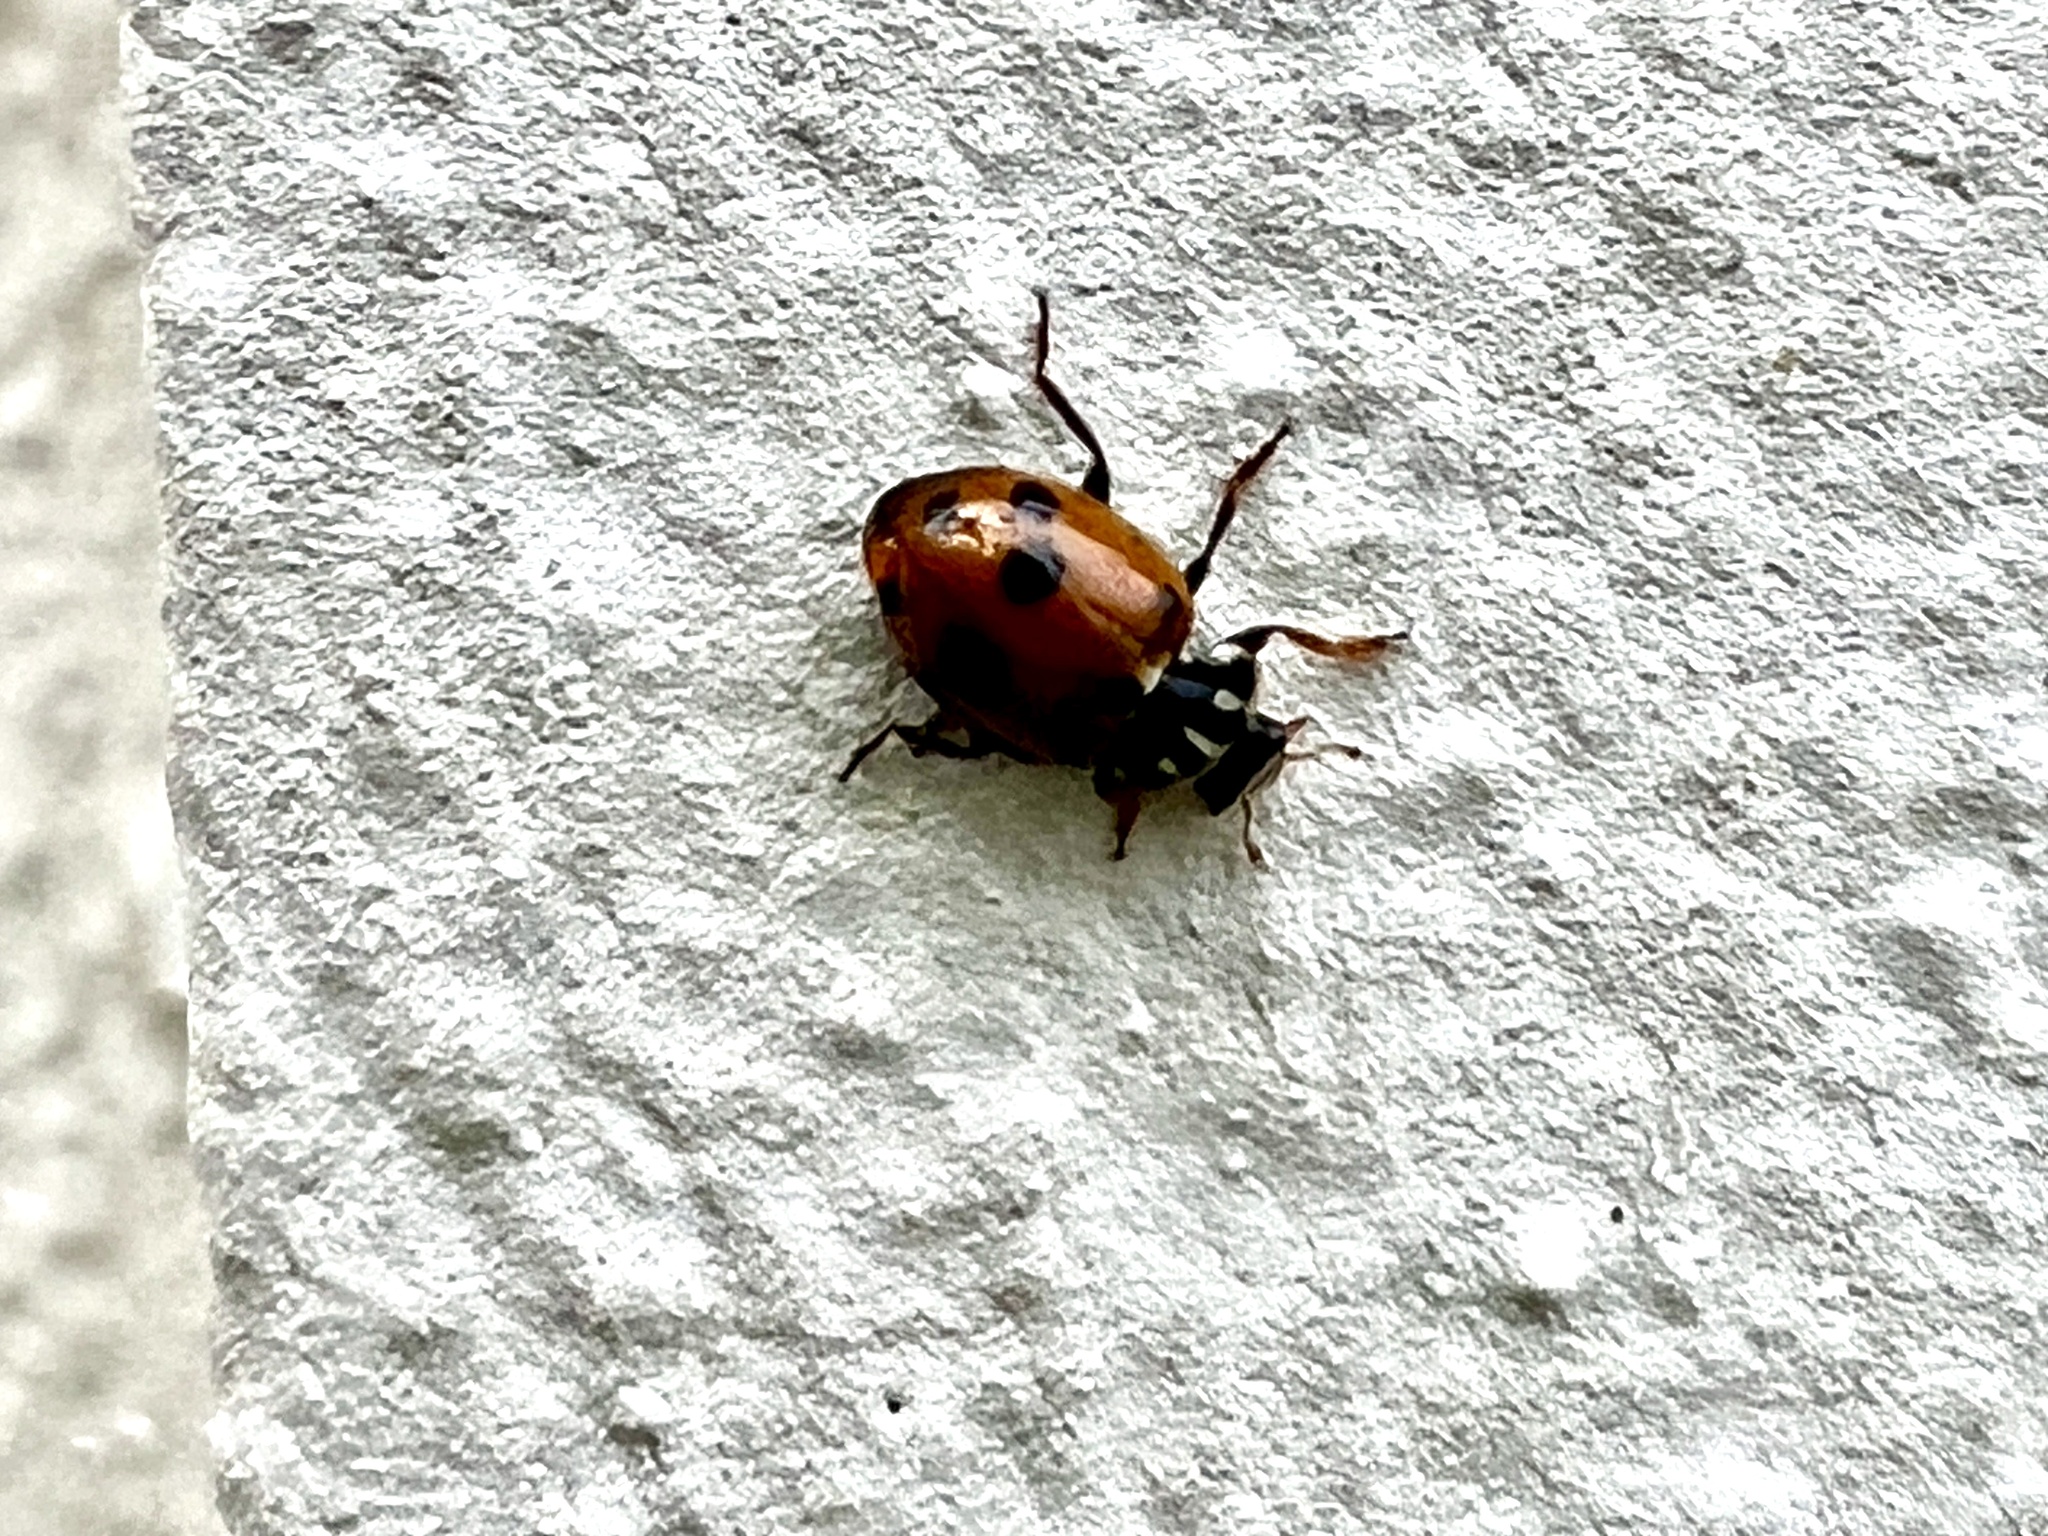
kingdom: Animalia
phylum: Arthropoda
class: Insecta
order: Coleoptera
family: Coccinellidae
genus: Hippodamia
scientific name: Hippodamia variegata
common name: Ladybird beetle
